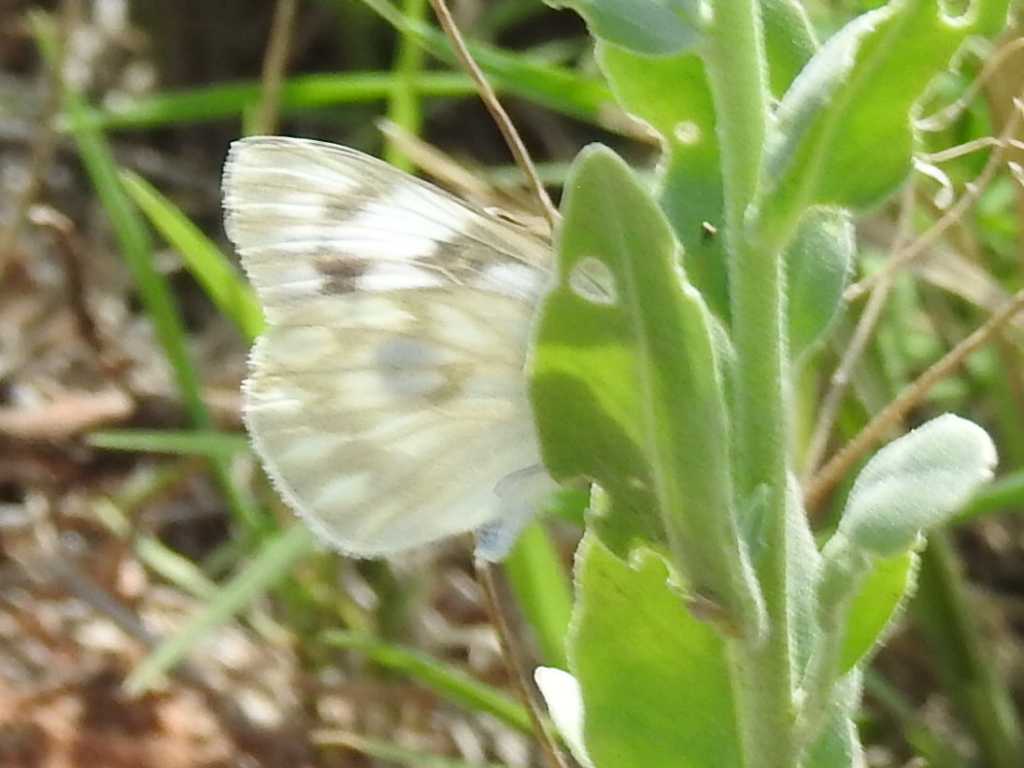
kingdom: Animalia
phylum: Arthropoda
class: Insecta
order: Lepidoptera
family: Pieridae
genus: Pontia
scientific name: Pontia protodice
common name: Checkered white
